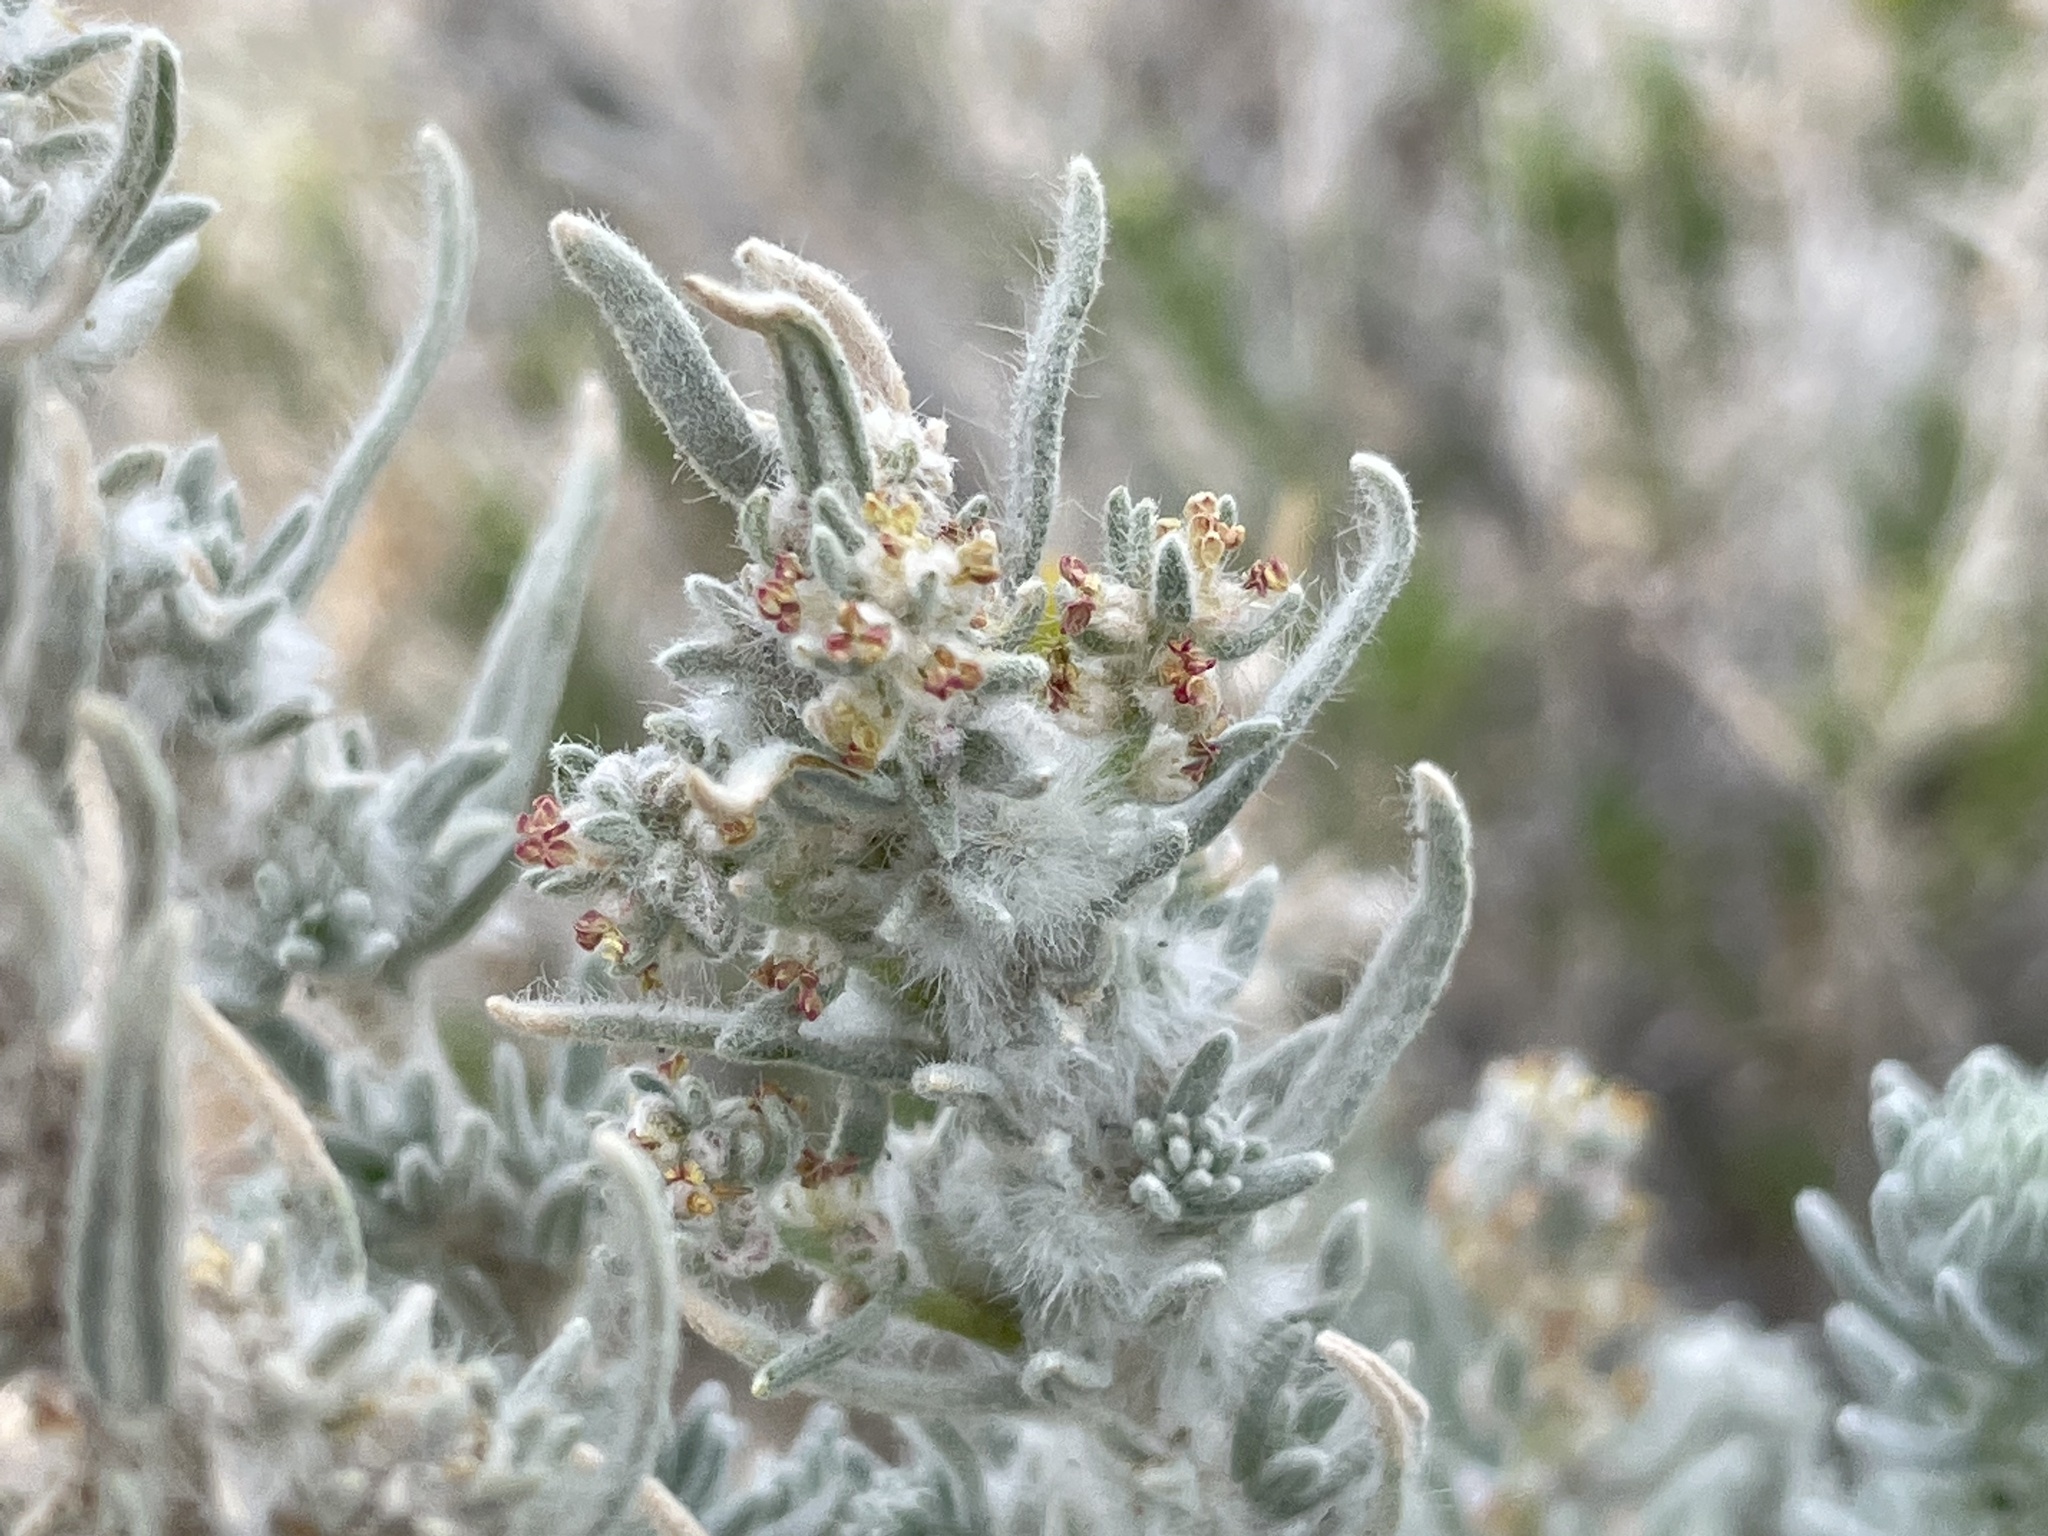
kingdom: Plantae
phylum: Tracheophyta
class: Magnoliopsida
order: Caryophyllales
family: Amaranthaceae
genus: Krascheninnikovia
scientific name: Krascheninnikovia lanata
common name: Winterfat
